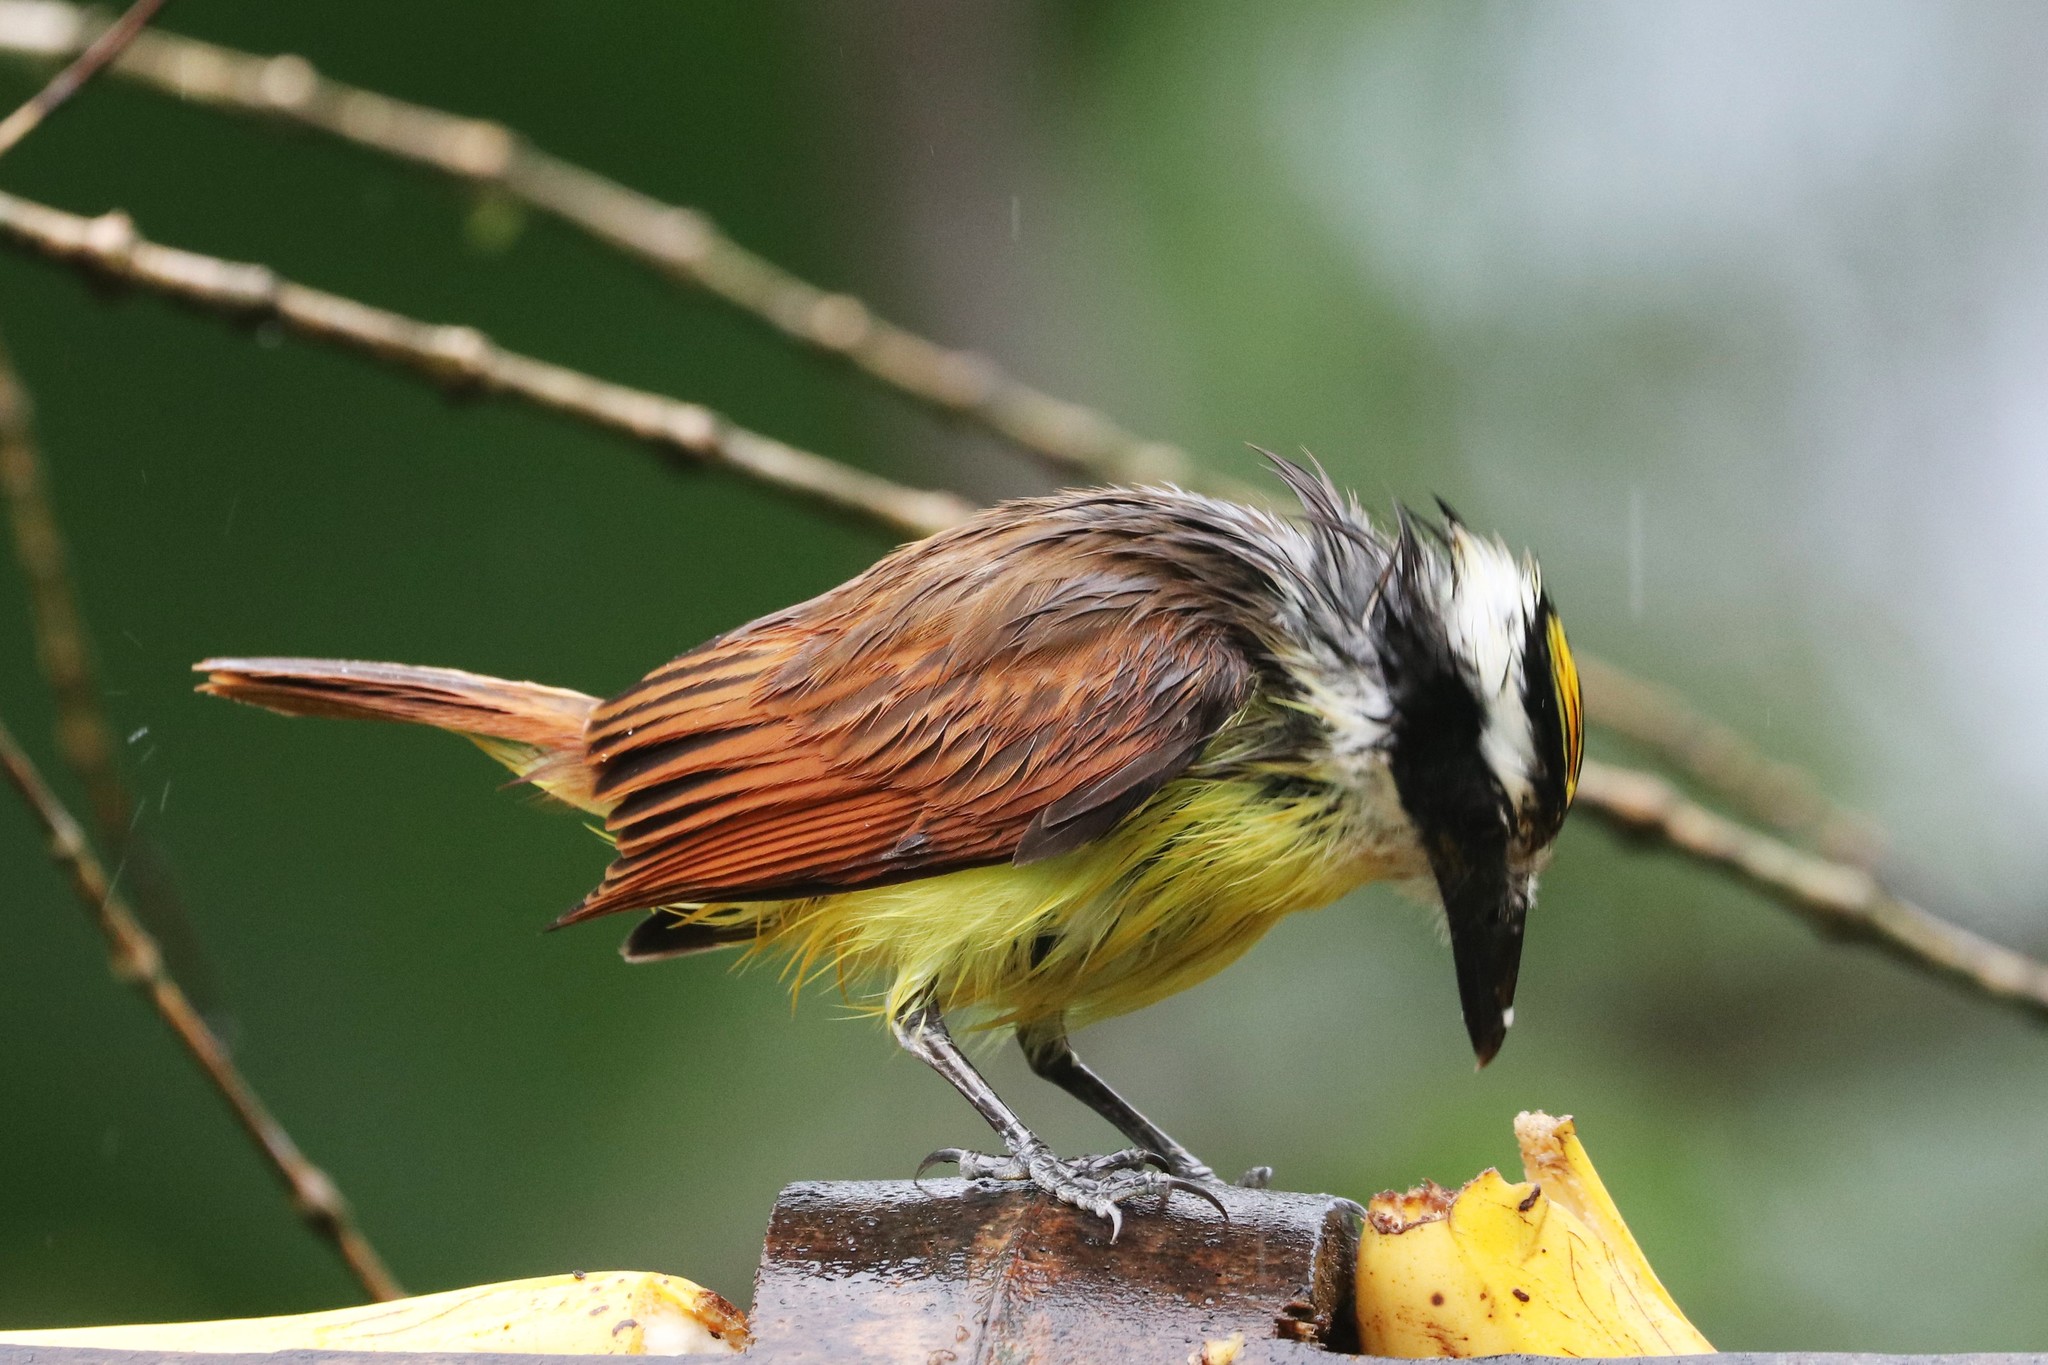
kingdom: Animalia
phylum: Chordata
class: Aves
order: Passeriformes
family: Tyrannidae
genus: Pitangus
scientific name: Pitangus sulphuratus
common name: Great kiskadee
